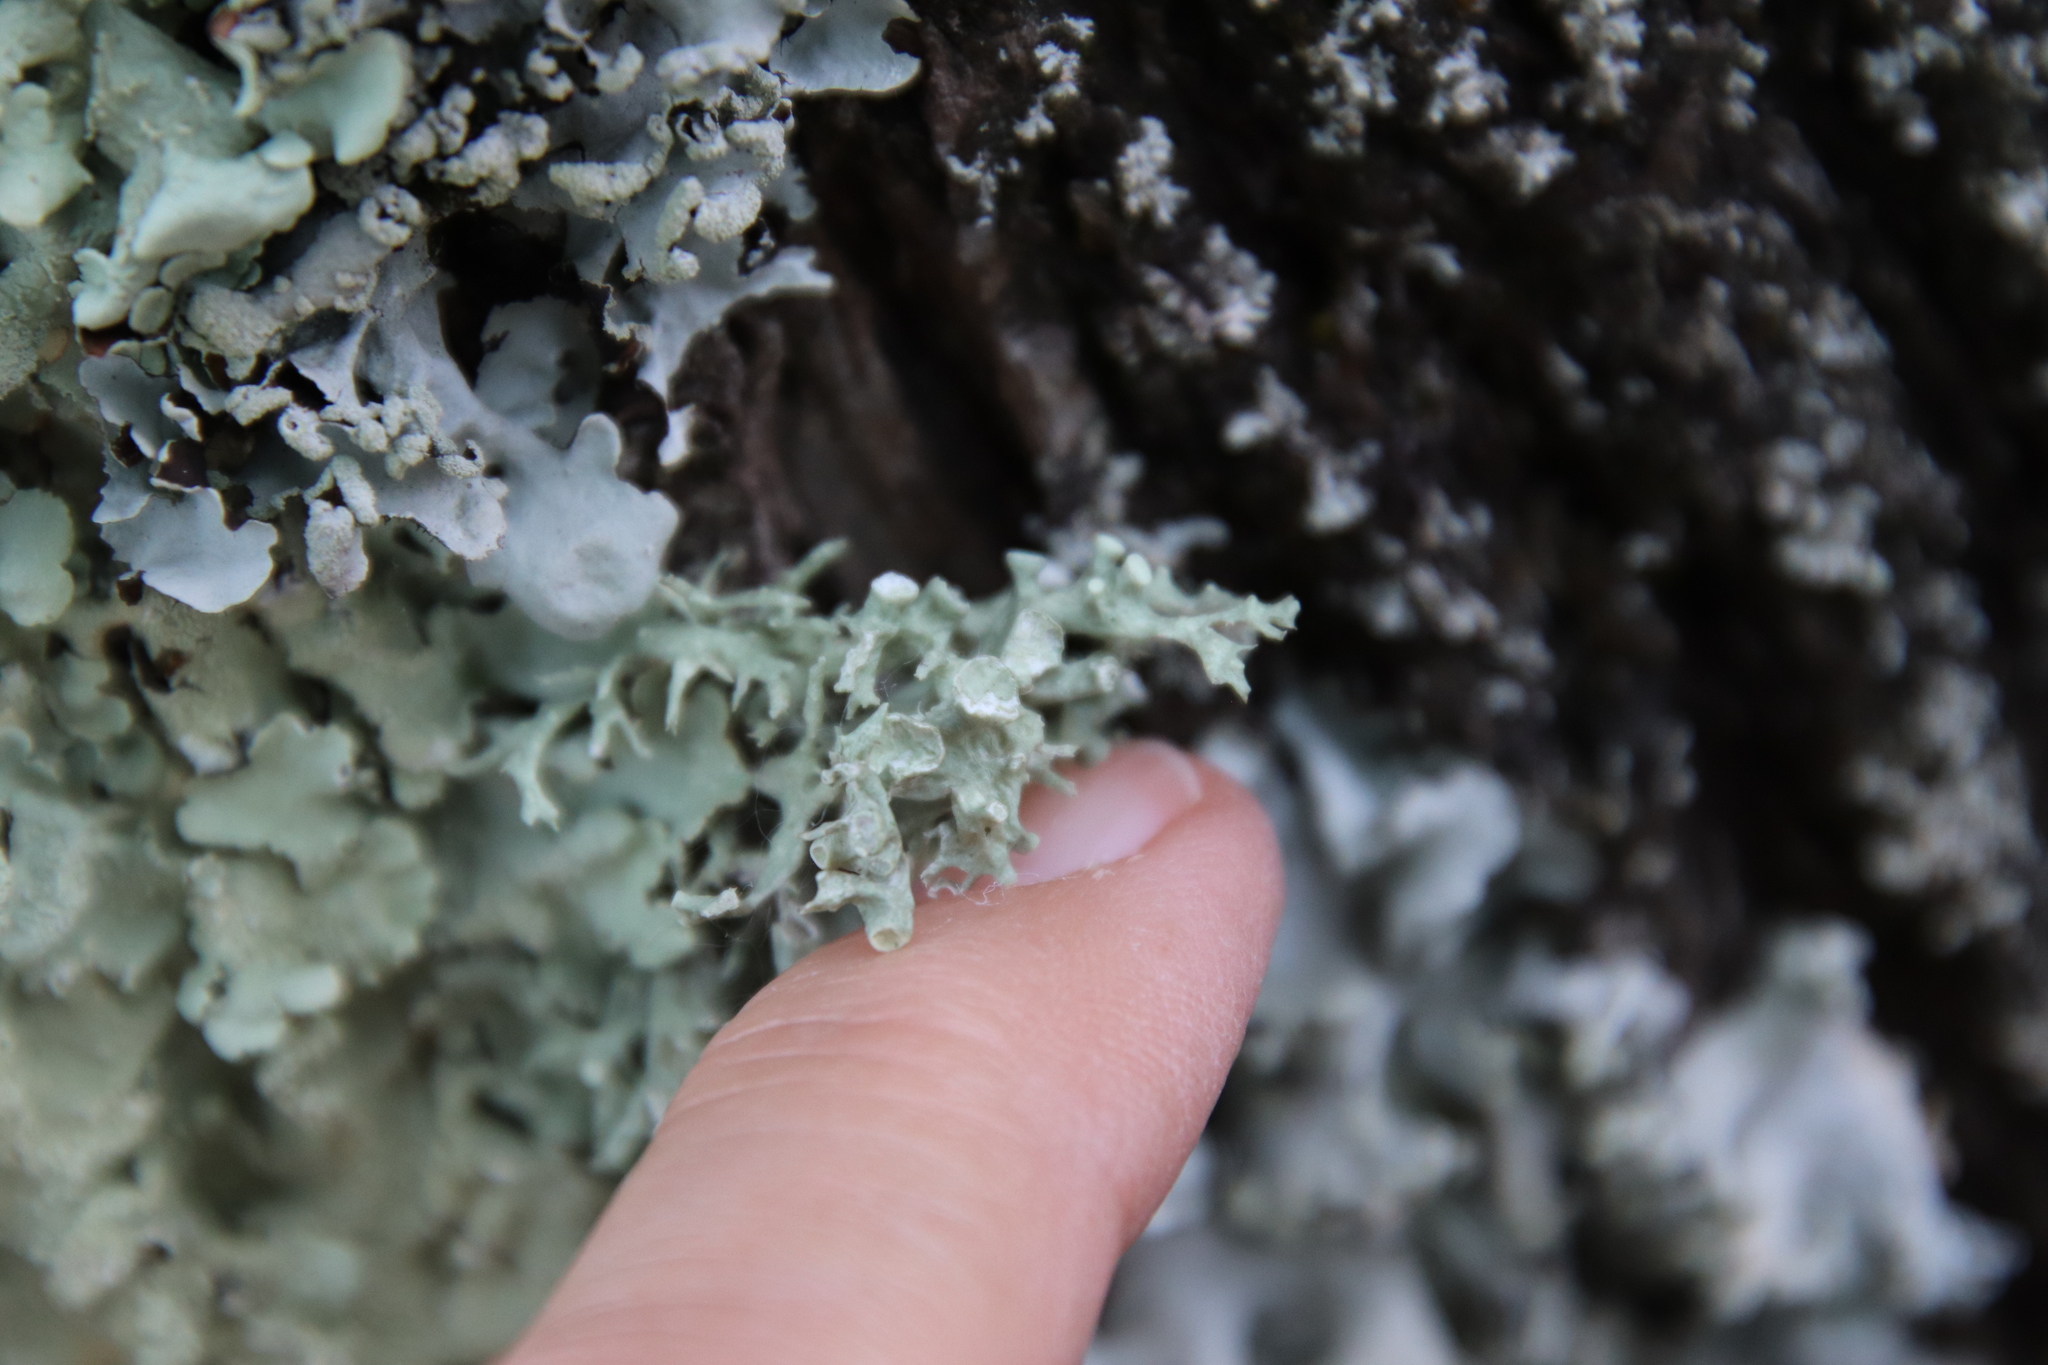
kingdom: Fungi
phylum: Ascomycota
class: Lecanoromycetes
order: Lecanorales
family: Ramalinaceae
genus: Ramalina
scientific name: Ramalina fastigiata
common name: Dotted ribbon lichen
